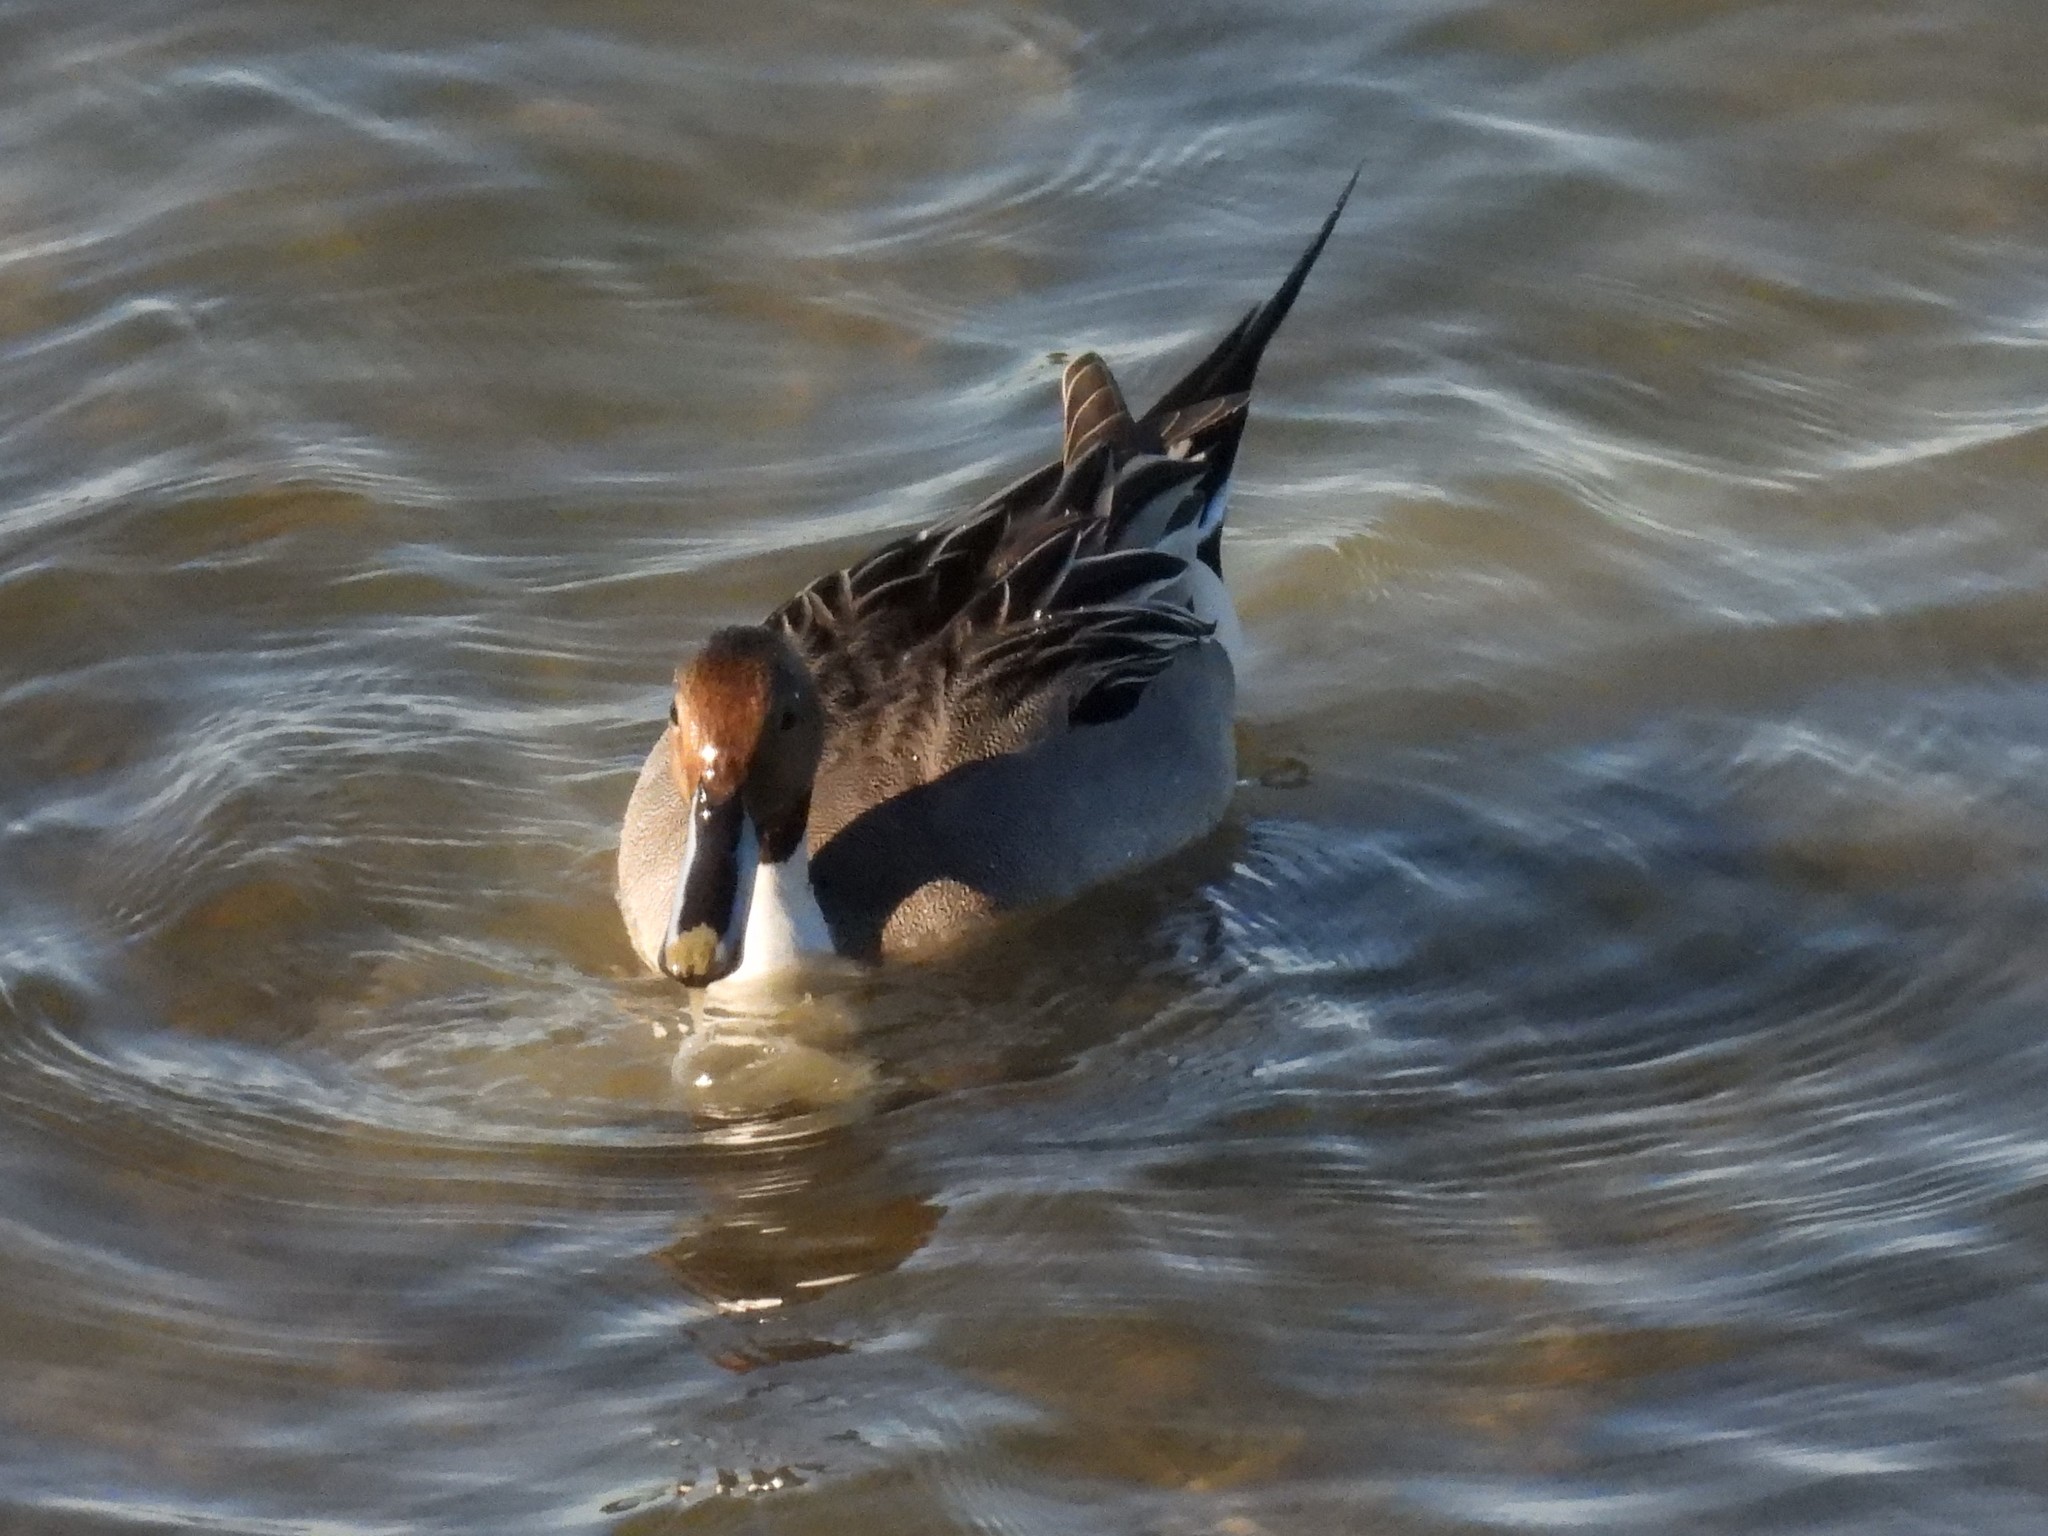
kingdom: Animalia
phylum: Chordata
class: Aves
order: Anseriformes
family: Anatidae
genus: Anas
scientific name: Anas acuta
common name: Northern pintail
